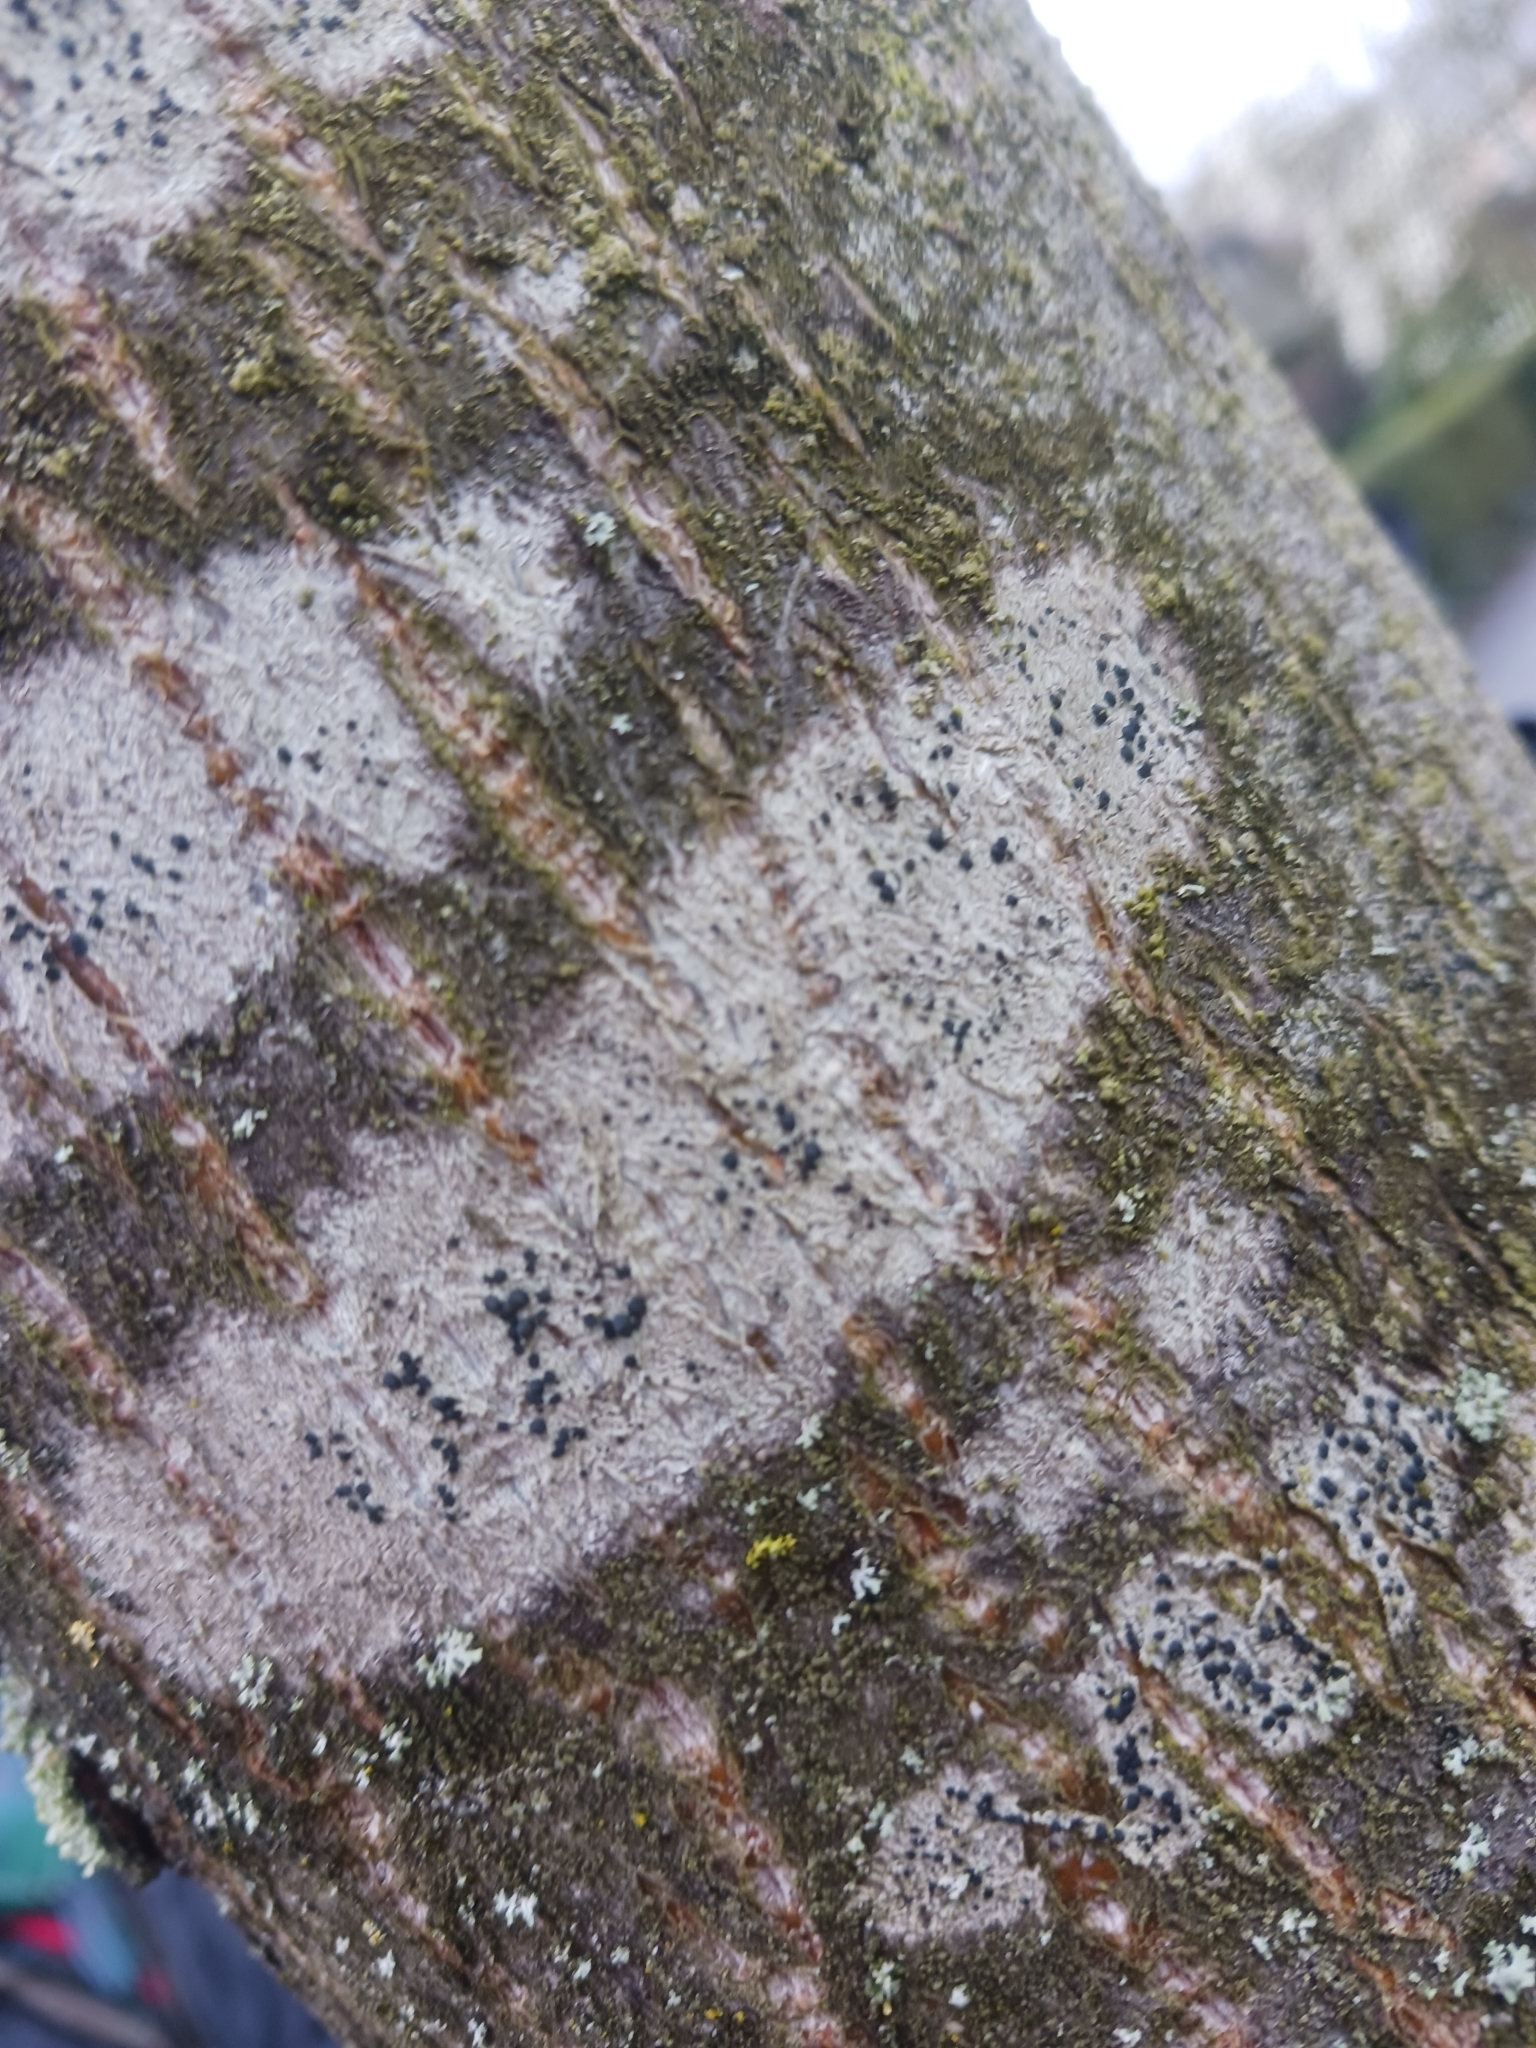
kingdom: Fungi
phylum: Ascomycota
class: Lecanoromycetes
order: Lecanorales
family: Lecanoraceae
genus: Lecidella
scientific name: Lecidella elaeochroma
